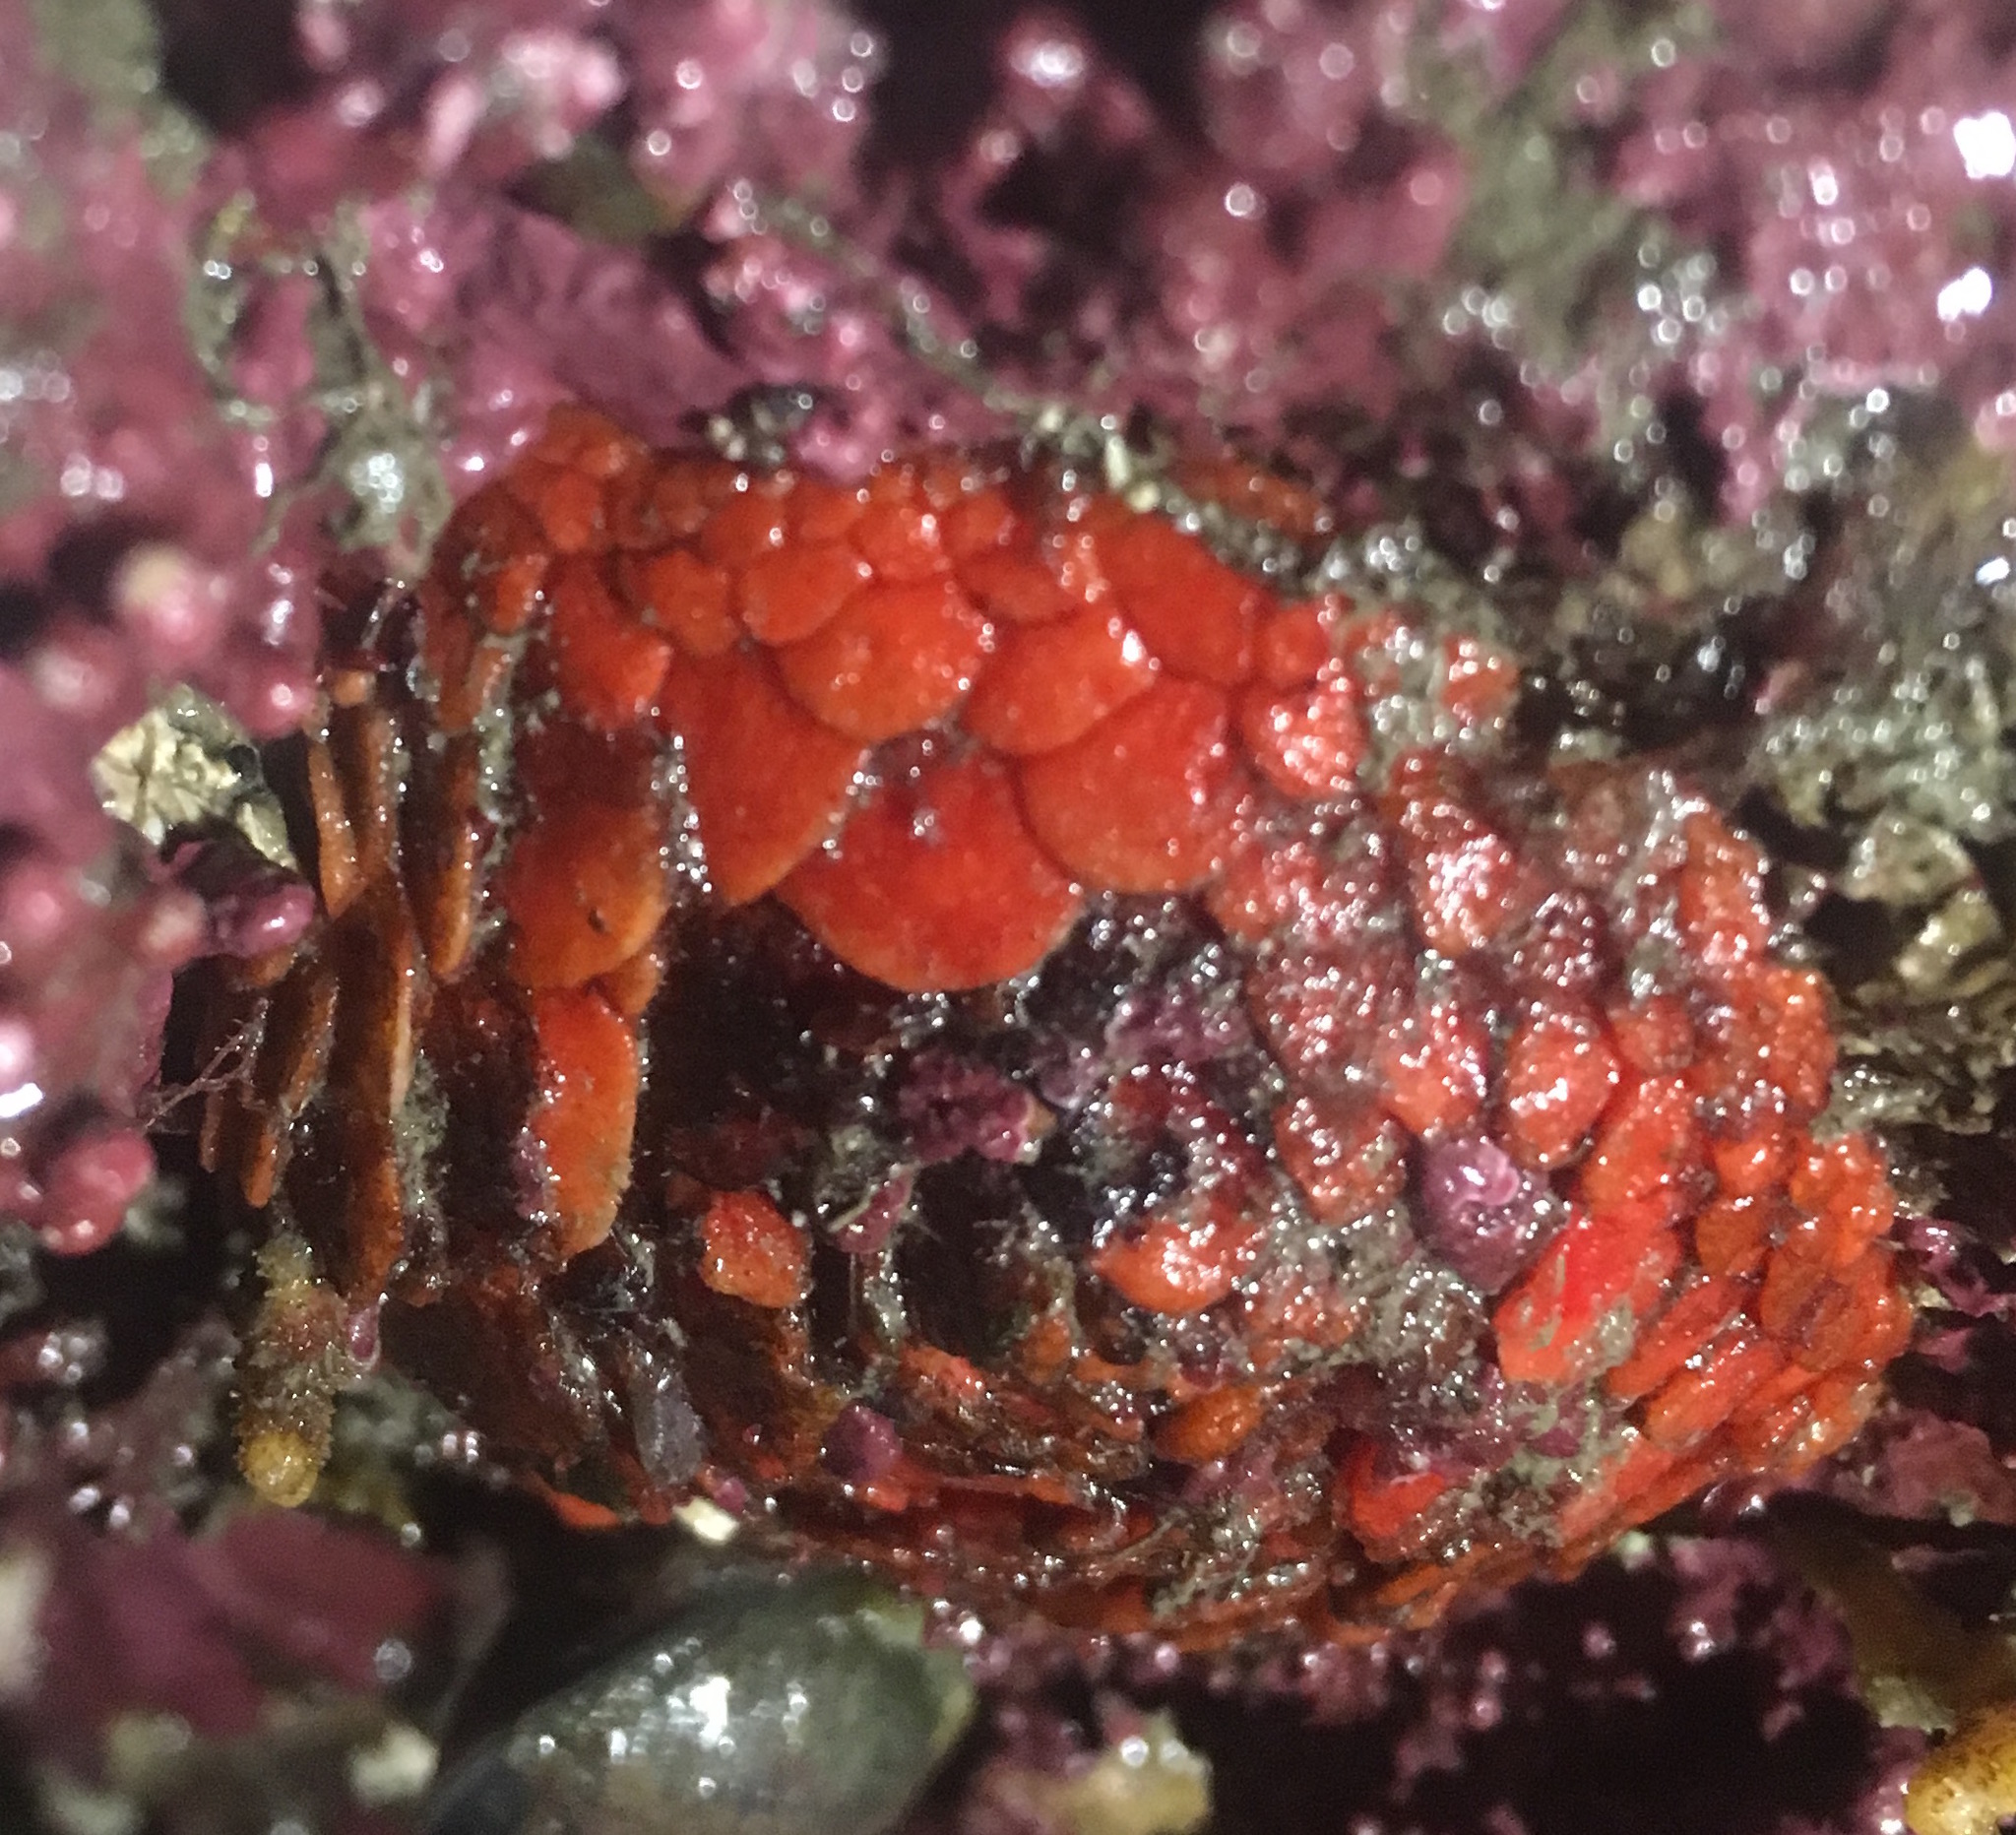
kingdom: Animalia
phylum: Echinodermata
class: Holothuroidea
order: Dendrochirotida
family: Psolidae
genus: Psolus
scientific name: Psolus chitonoides
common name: Creeping pedal sea cucumber
